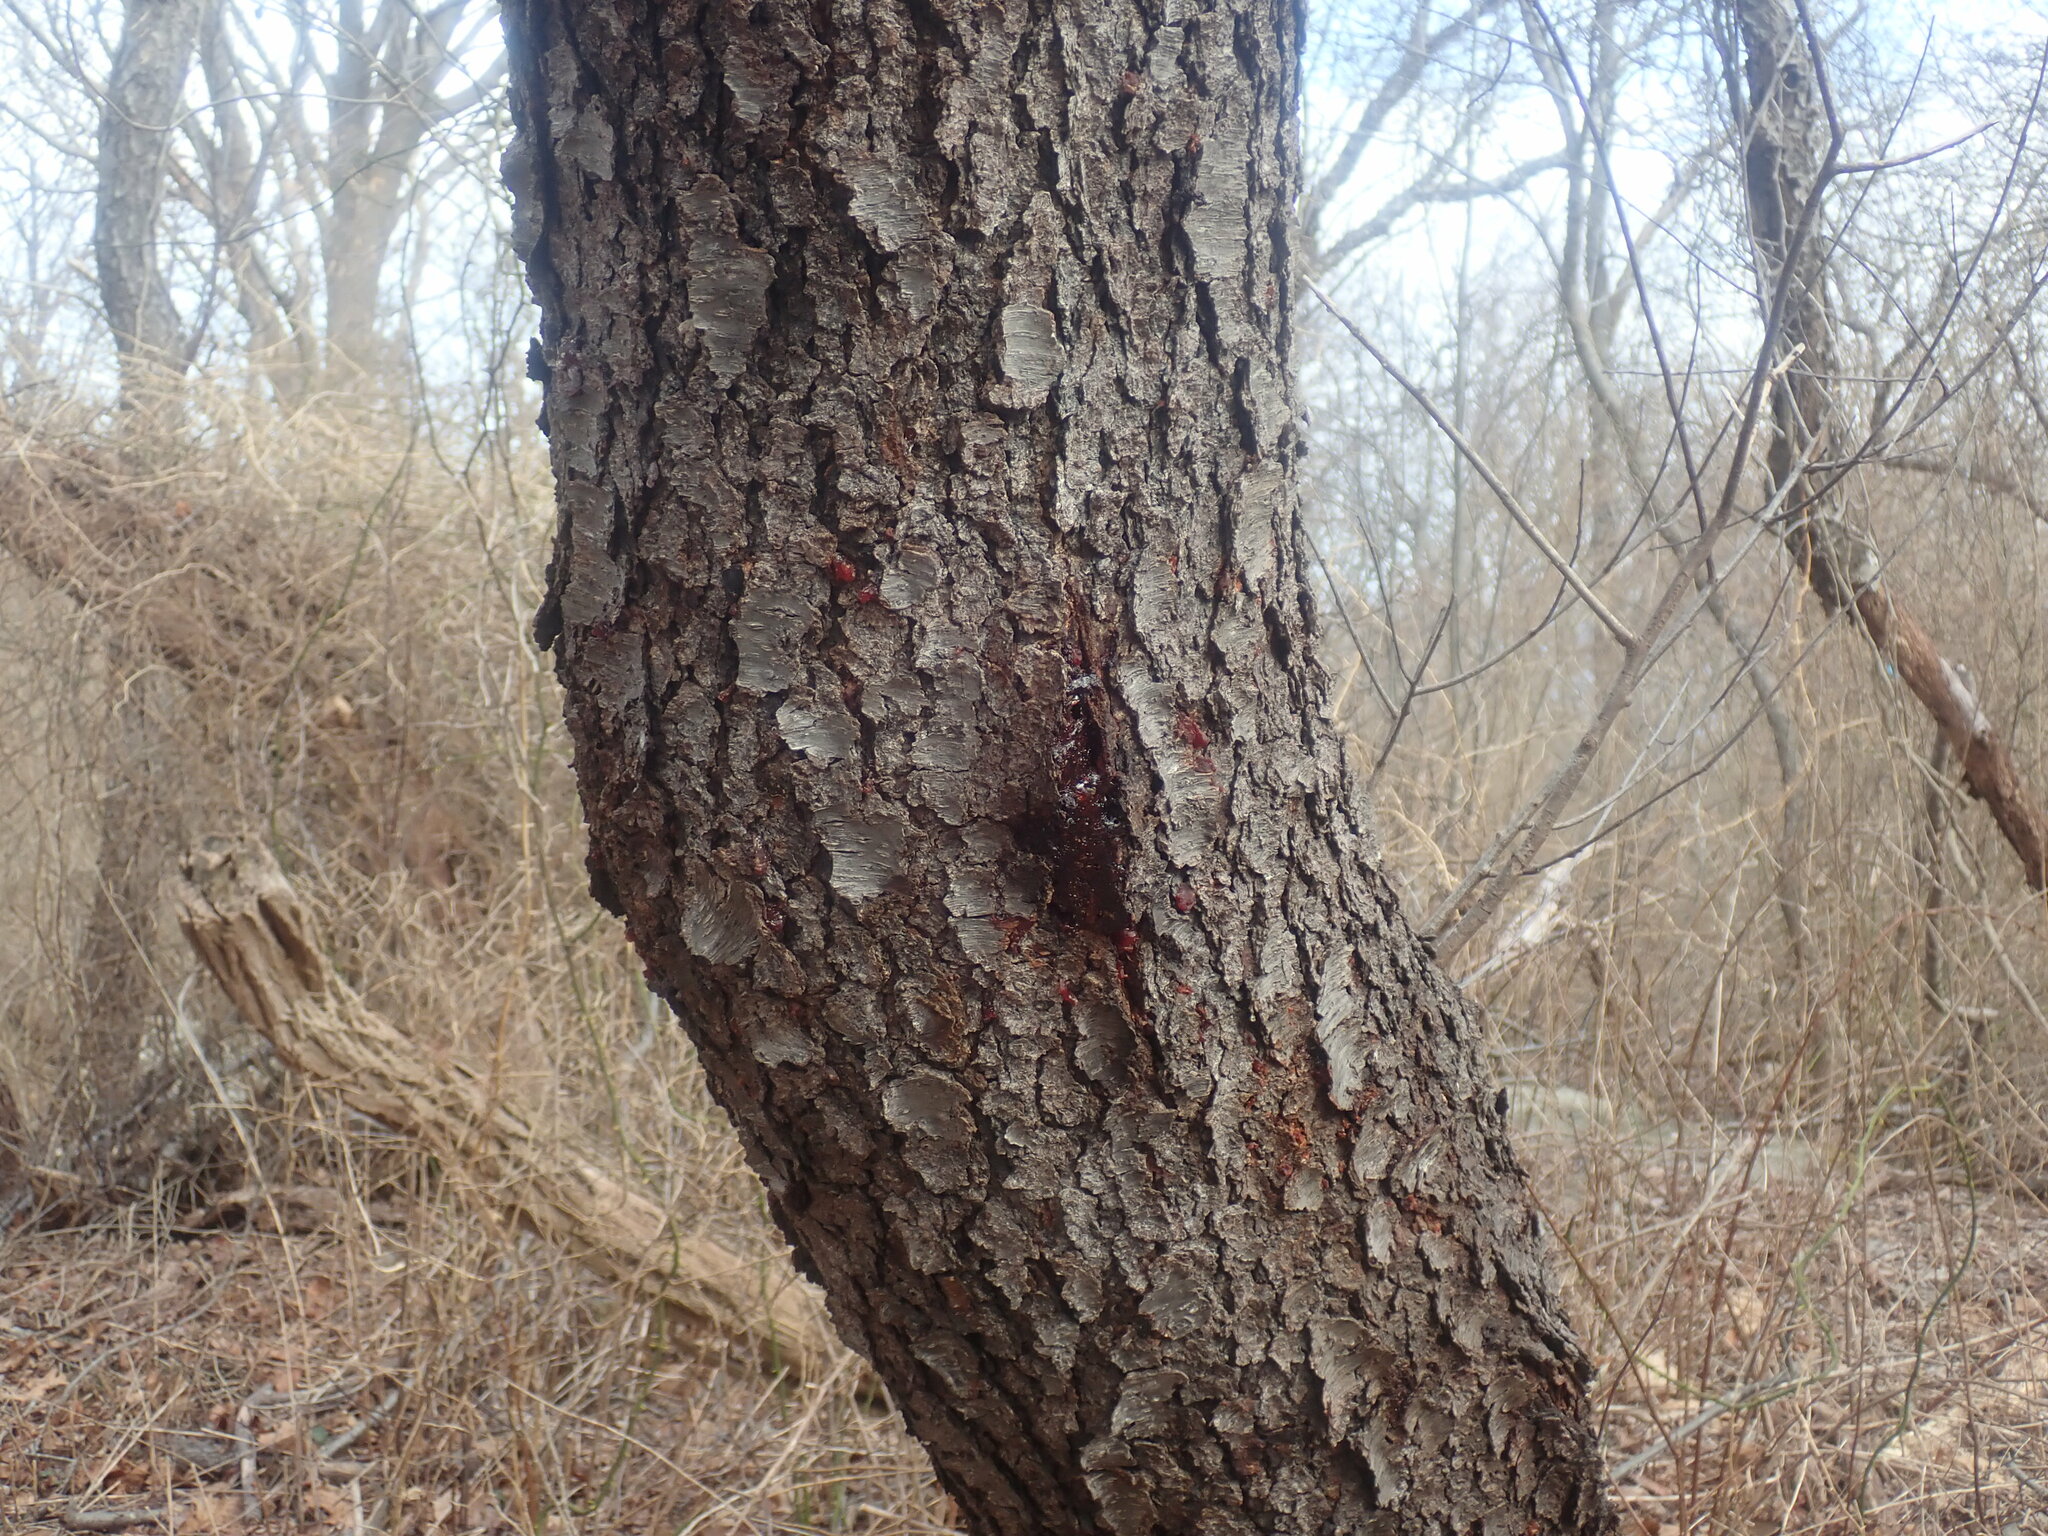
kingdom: Plantae
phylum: Tracheophyta
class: Magnoliopsida
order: Rosales
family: Rosaceae
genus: Prunus
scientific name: Prunus serotina
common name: Black cherry
